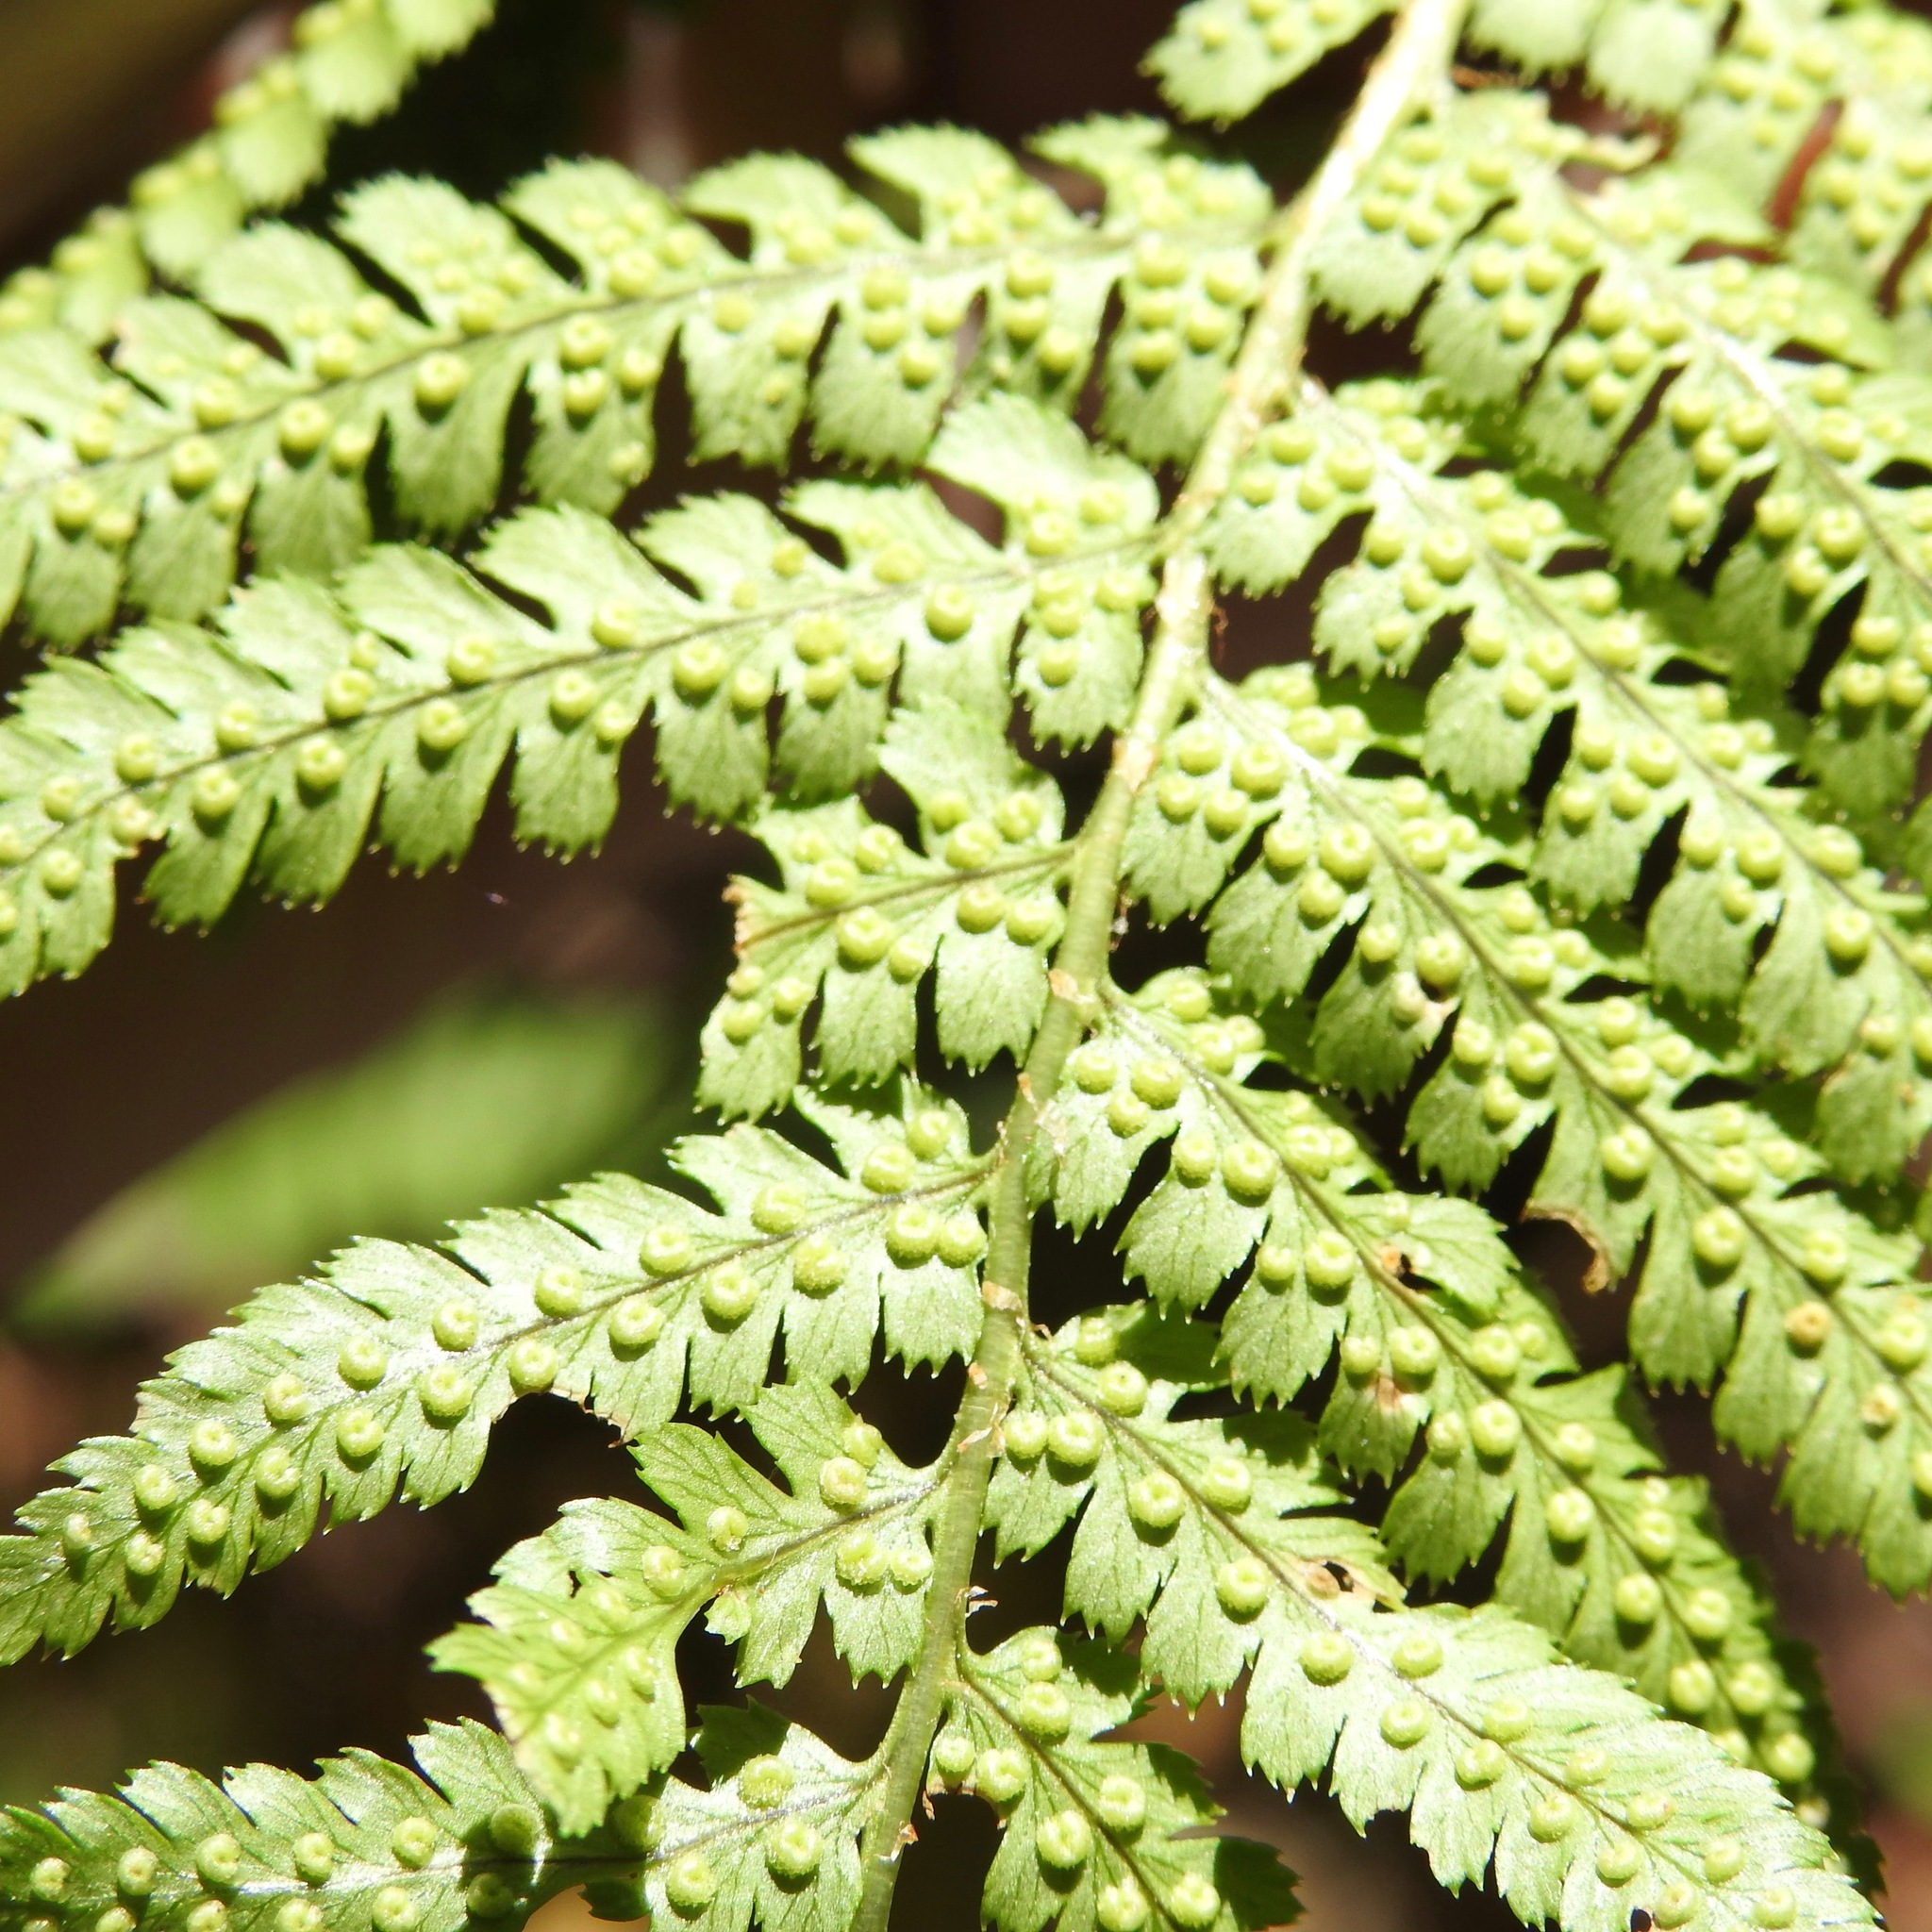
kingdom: Plantae
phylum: Tracheophyta
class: Polypodiopsida
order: Polypodiales
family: Dryopteridaceae
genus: Dryopteris
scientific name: Dryopteris arguta
